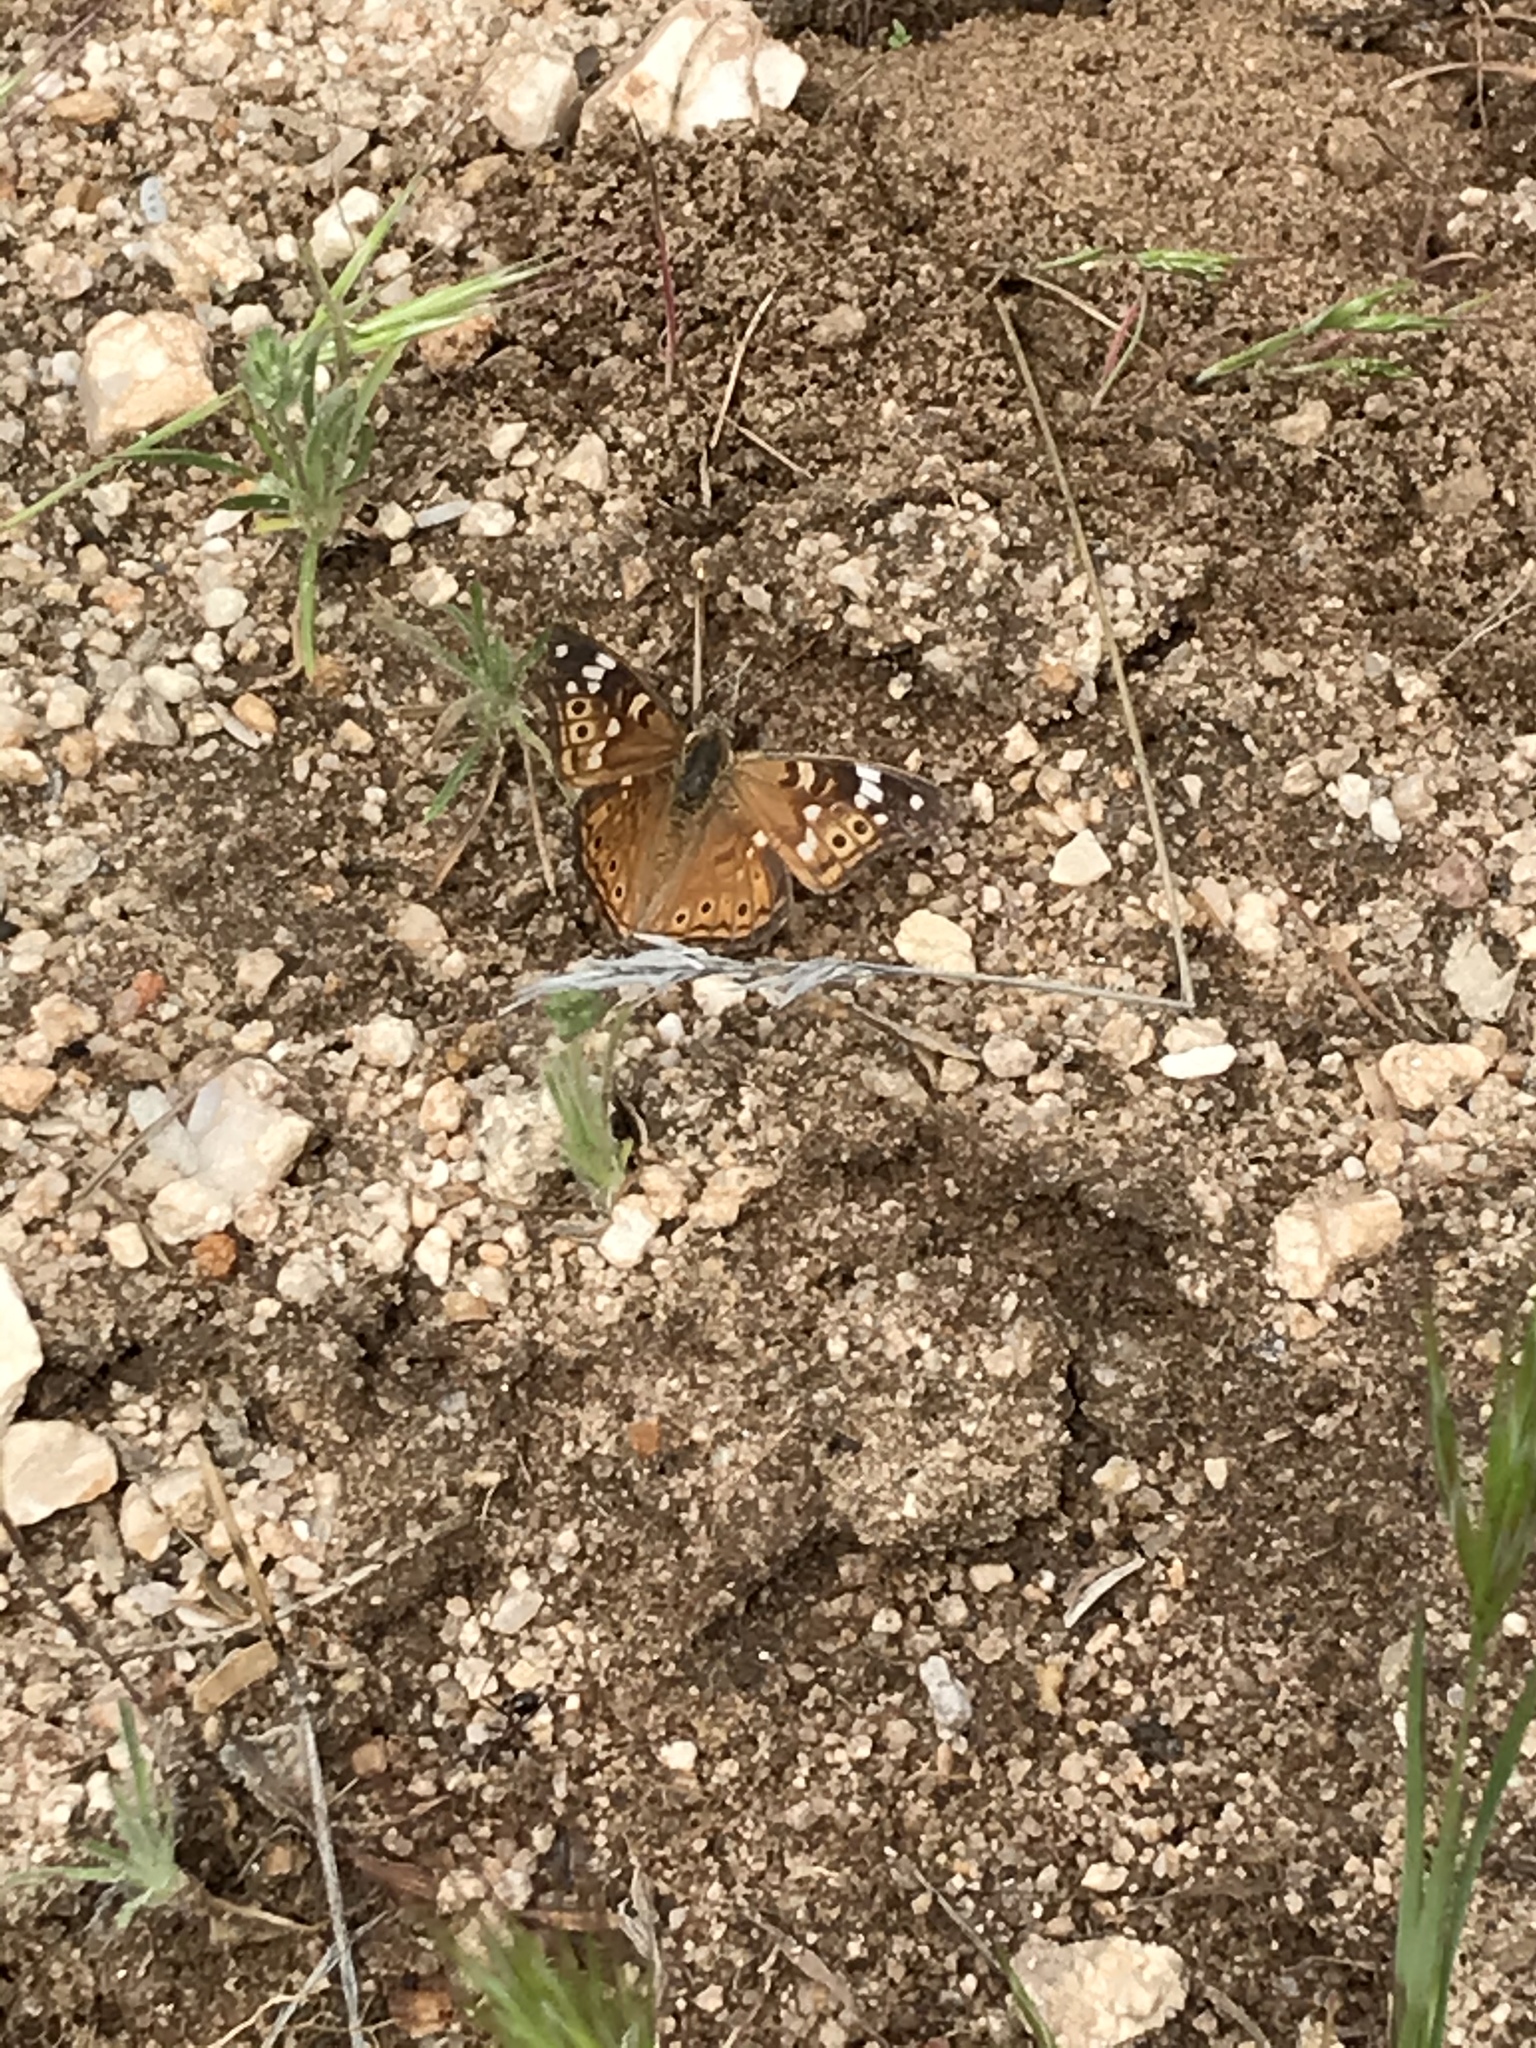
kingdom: Animalia
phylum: Arthropoda
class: Insecta
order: Lepidoptera
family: Nymphalidae
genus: Asterocampa
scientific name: Asterocampa leilia
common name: Empress leilia
